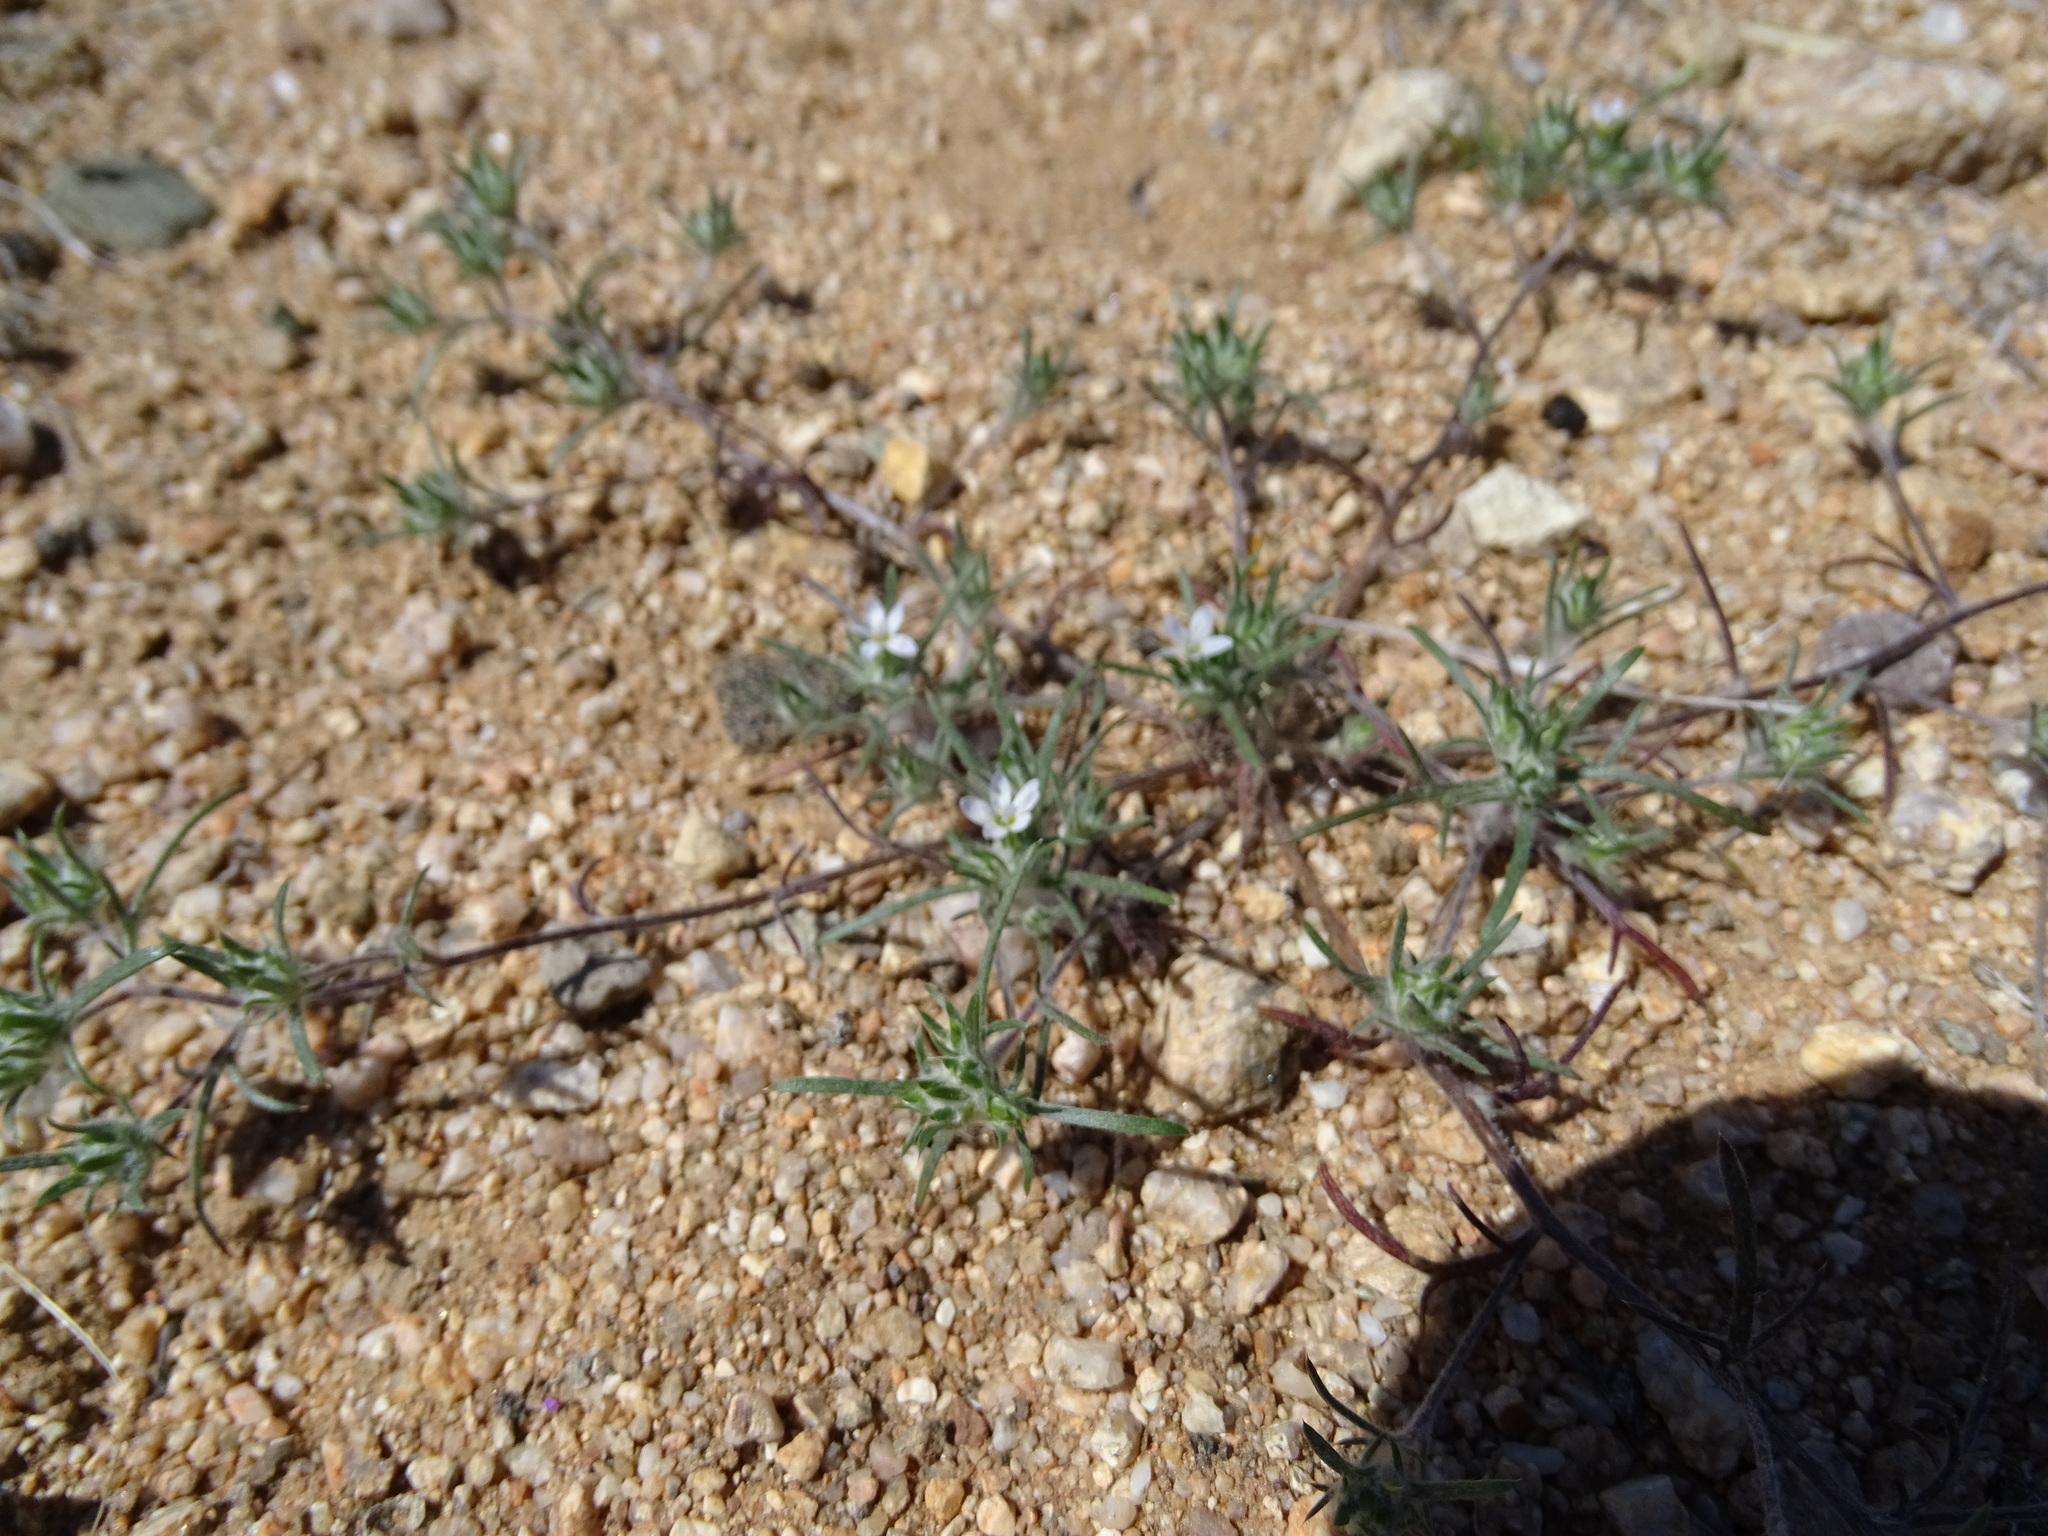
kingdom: Plantae
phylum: Tracheophyta
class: Magnoliopsida
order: Ericales
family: Polemoniaceae
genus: Eriastrum
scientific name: Eriastrum diffusum
